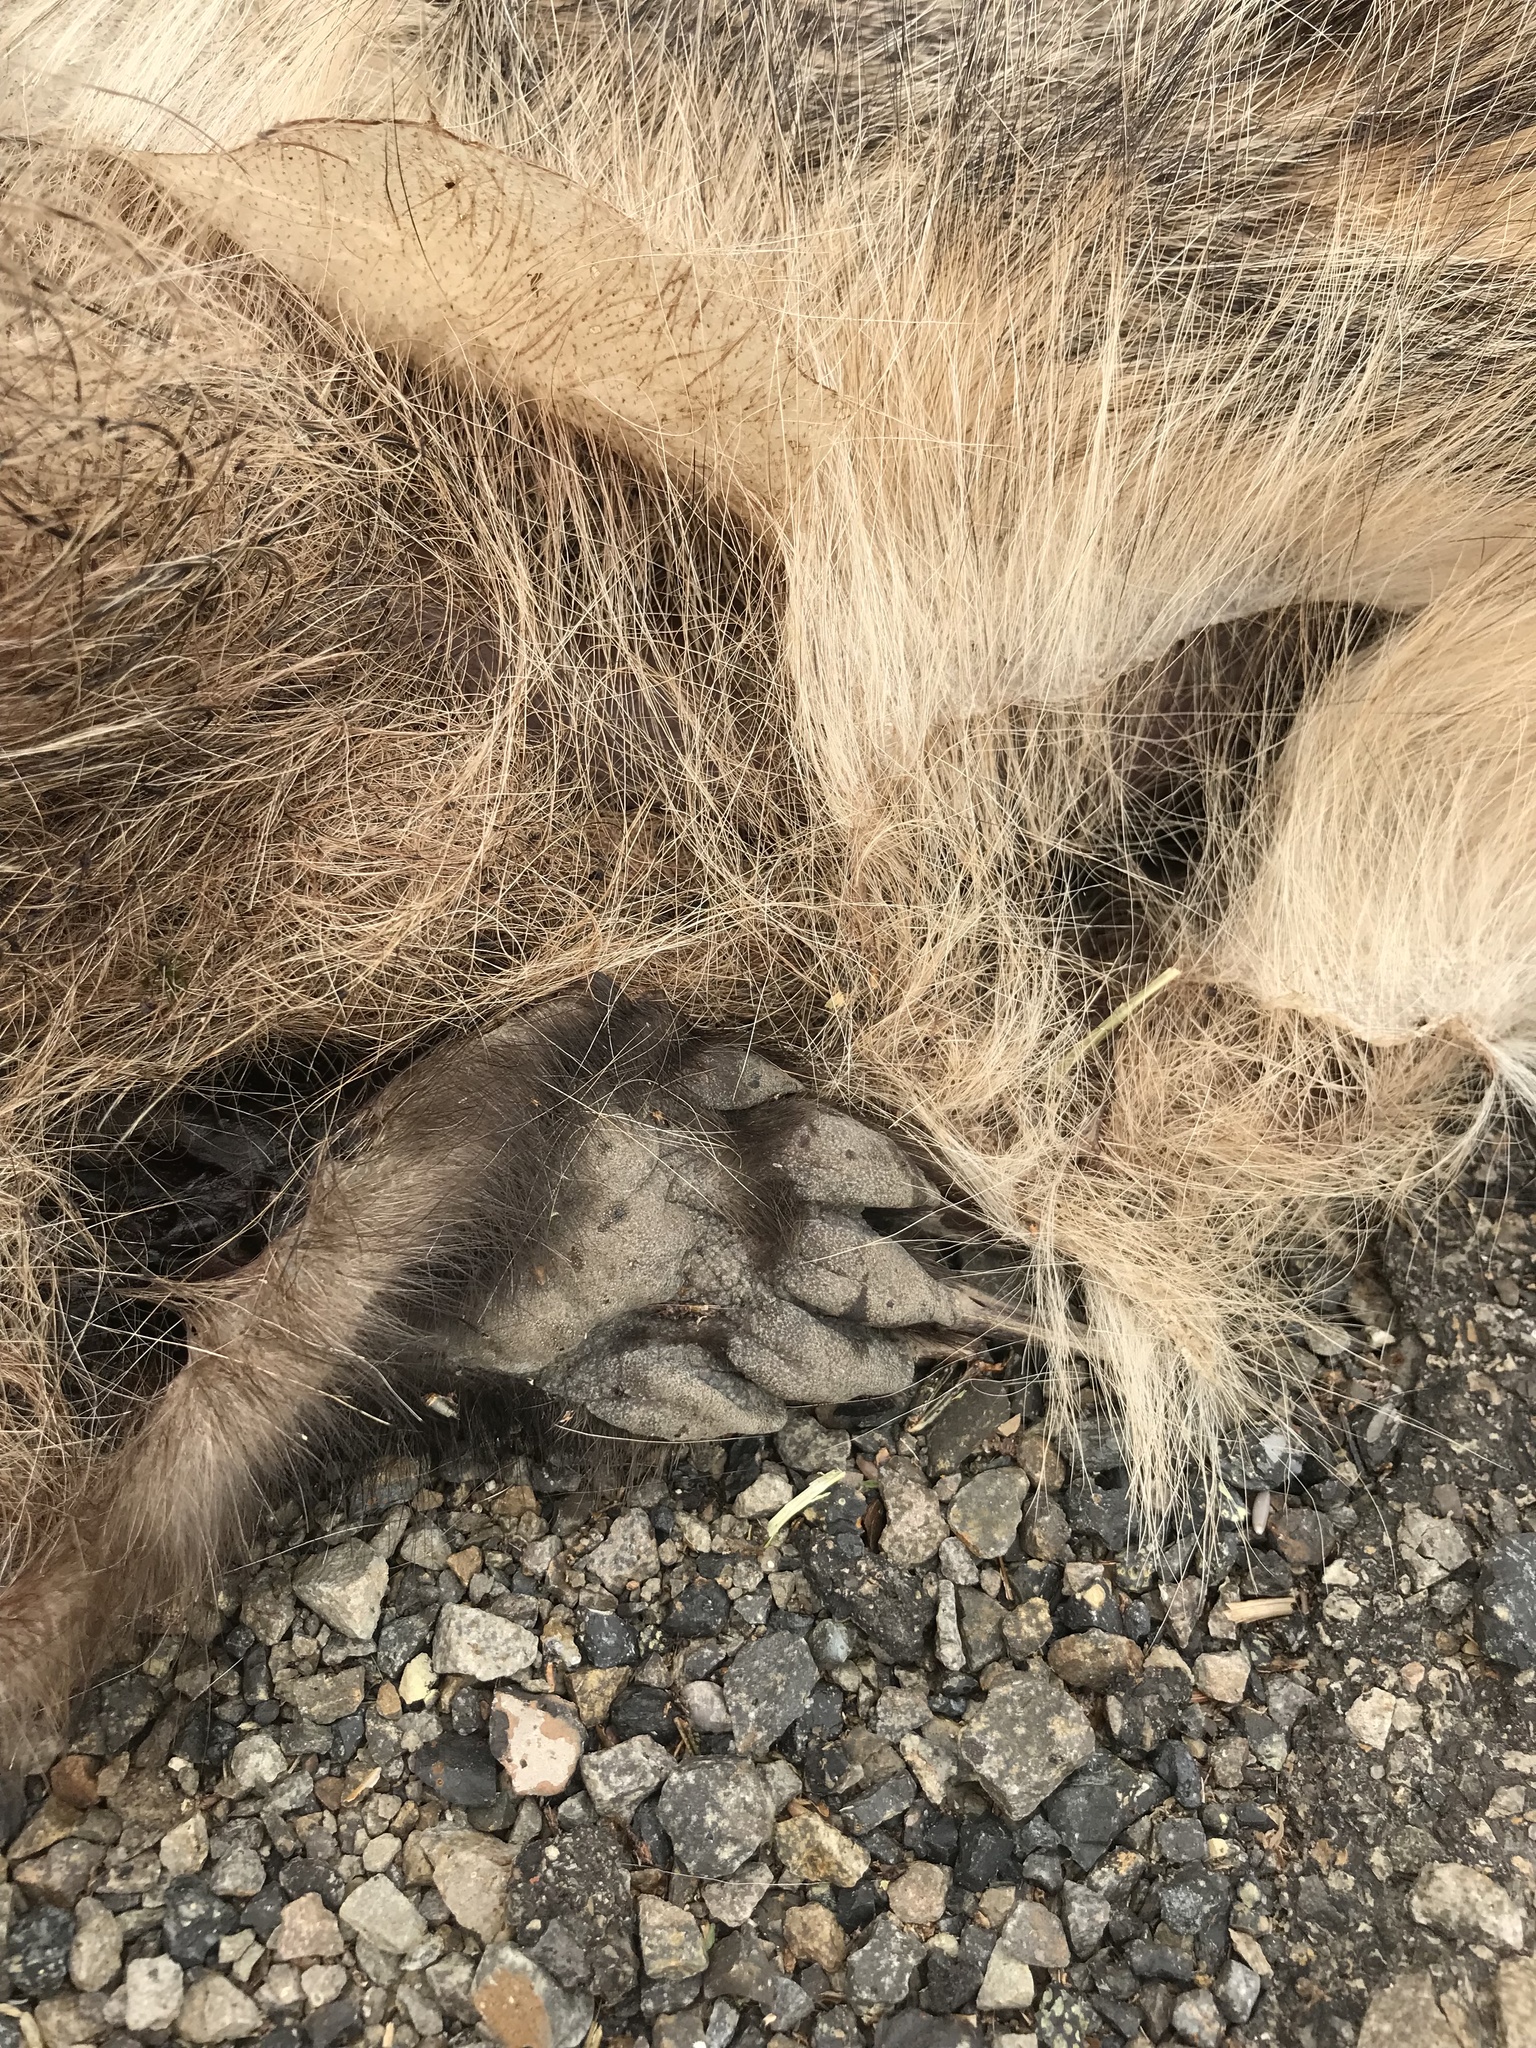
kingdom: Animalia
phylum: Chordata
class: Mammalia
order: Carnivora
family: Mustelidae
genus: Taxidea
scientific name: Taxidea taxus
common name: American badger
